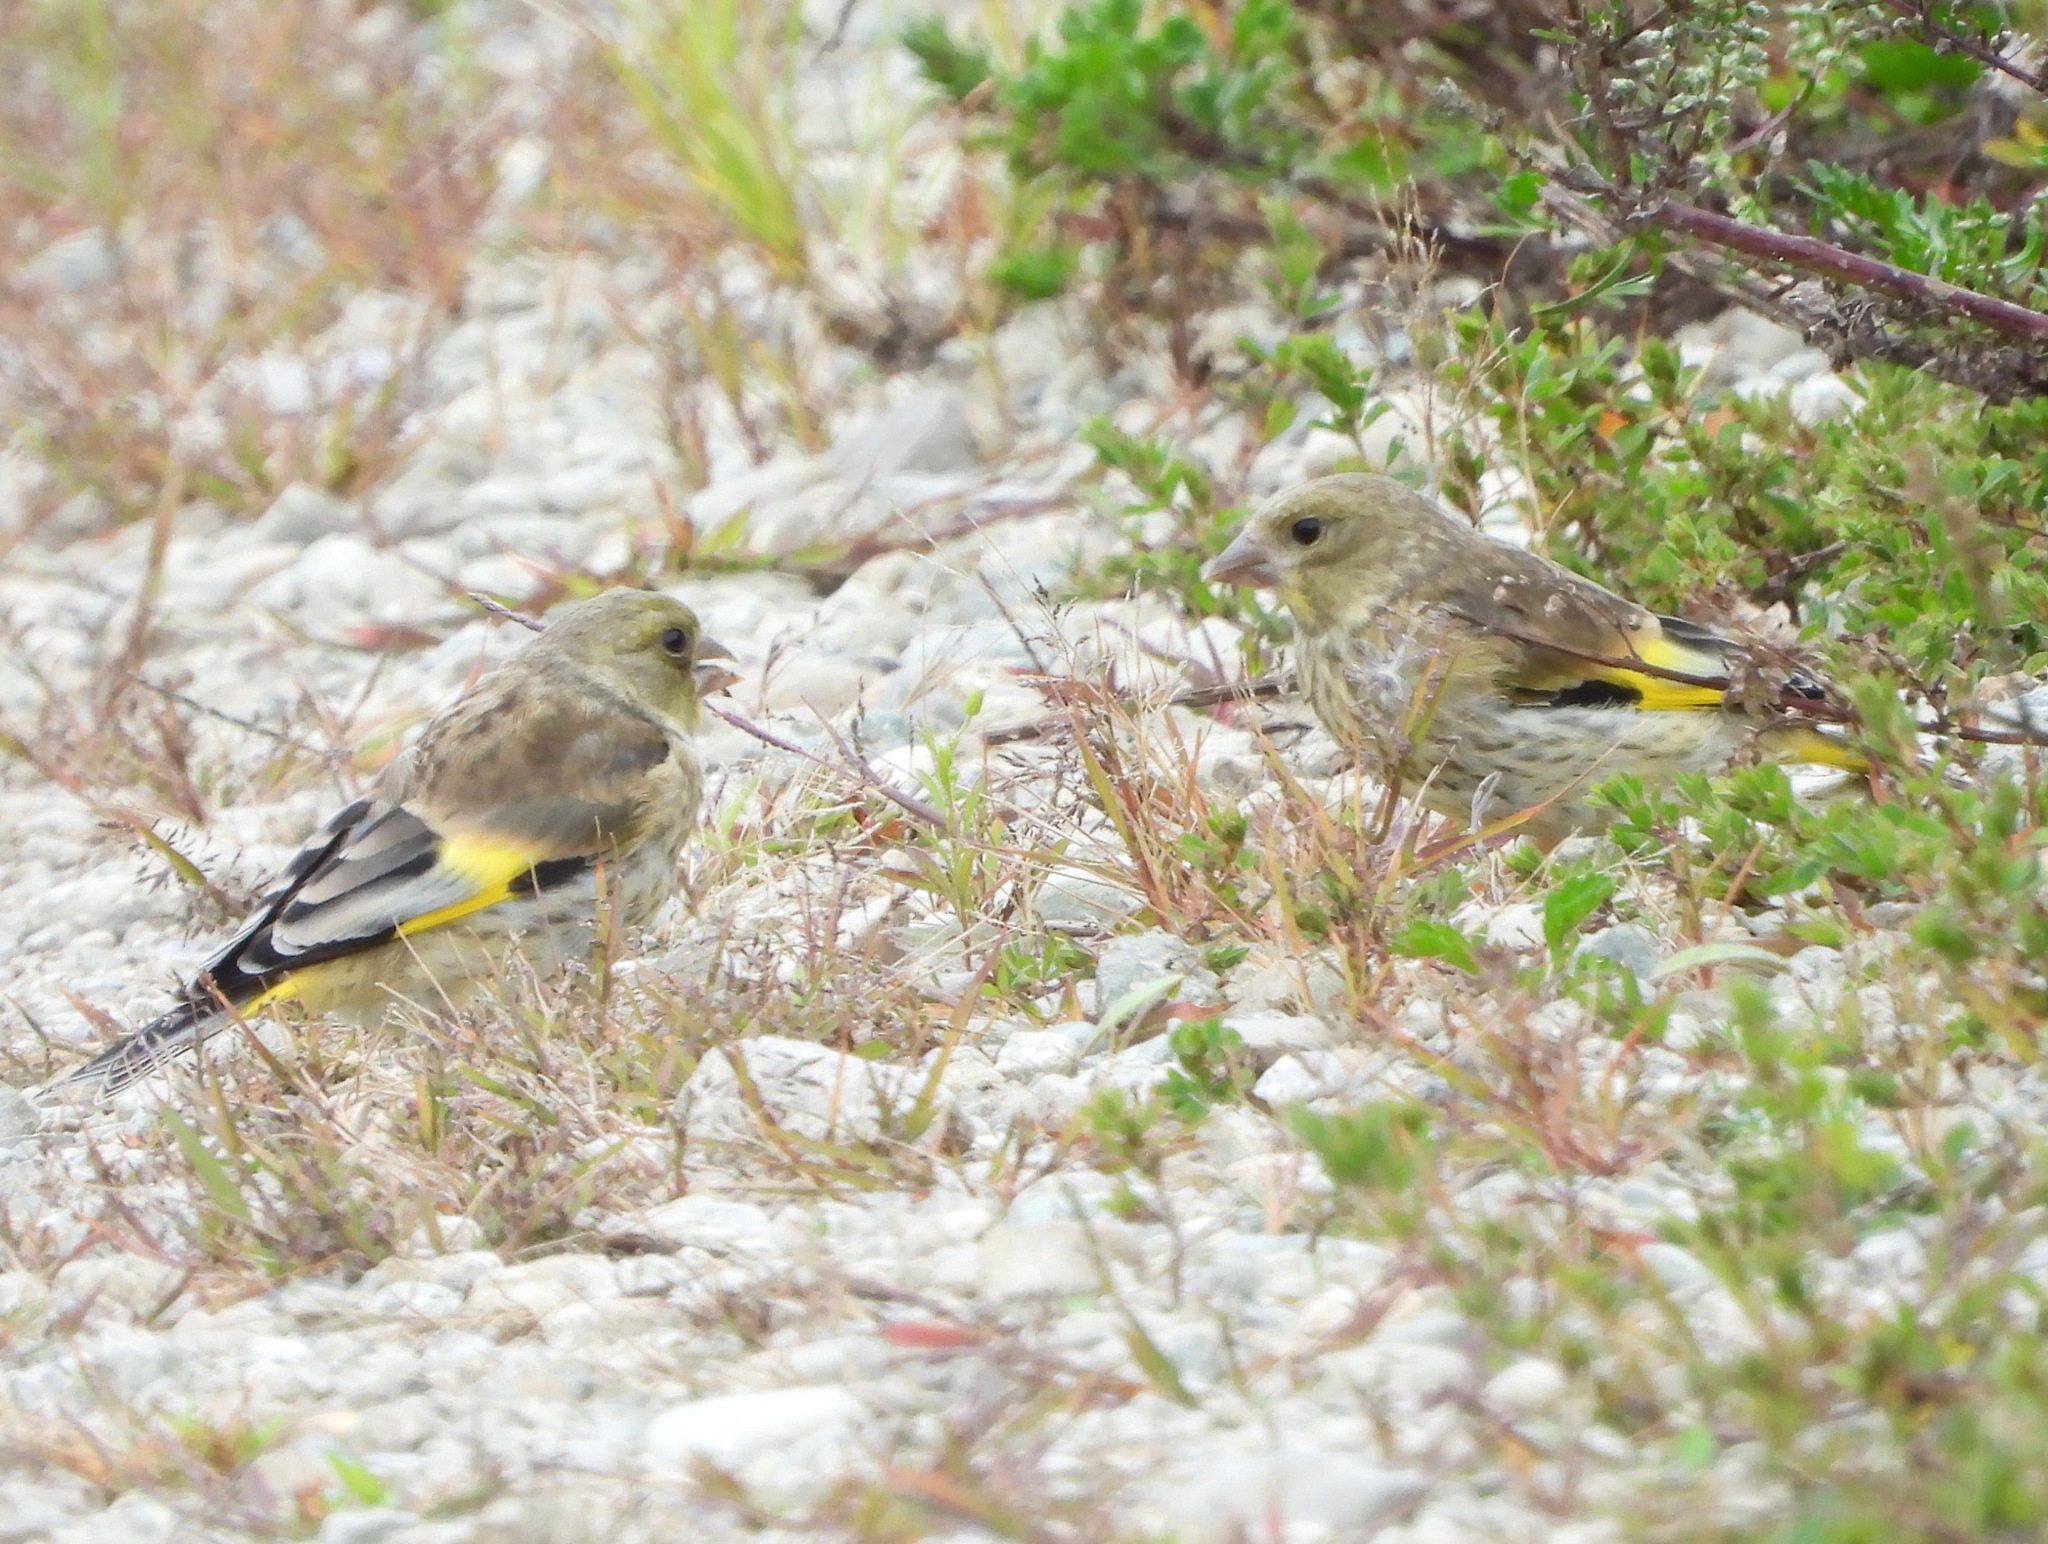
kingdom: Plantae
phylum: Tracheophyta
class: Liliopsida
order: Poales
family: Poaceae
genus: Chloris
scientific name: Chloris sinica
